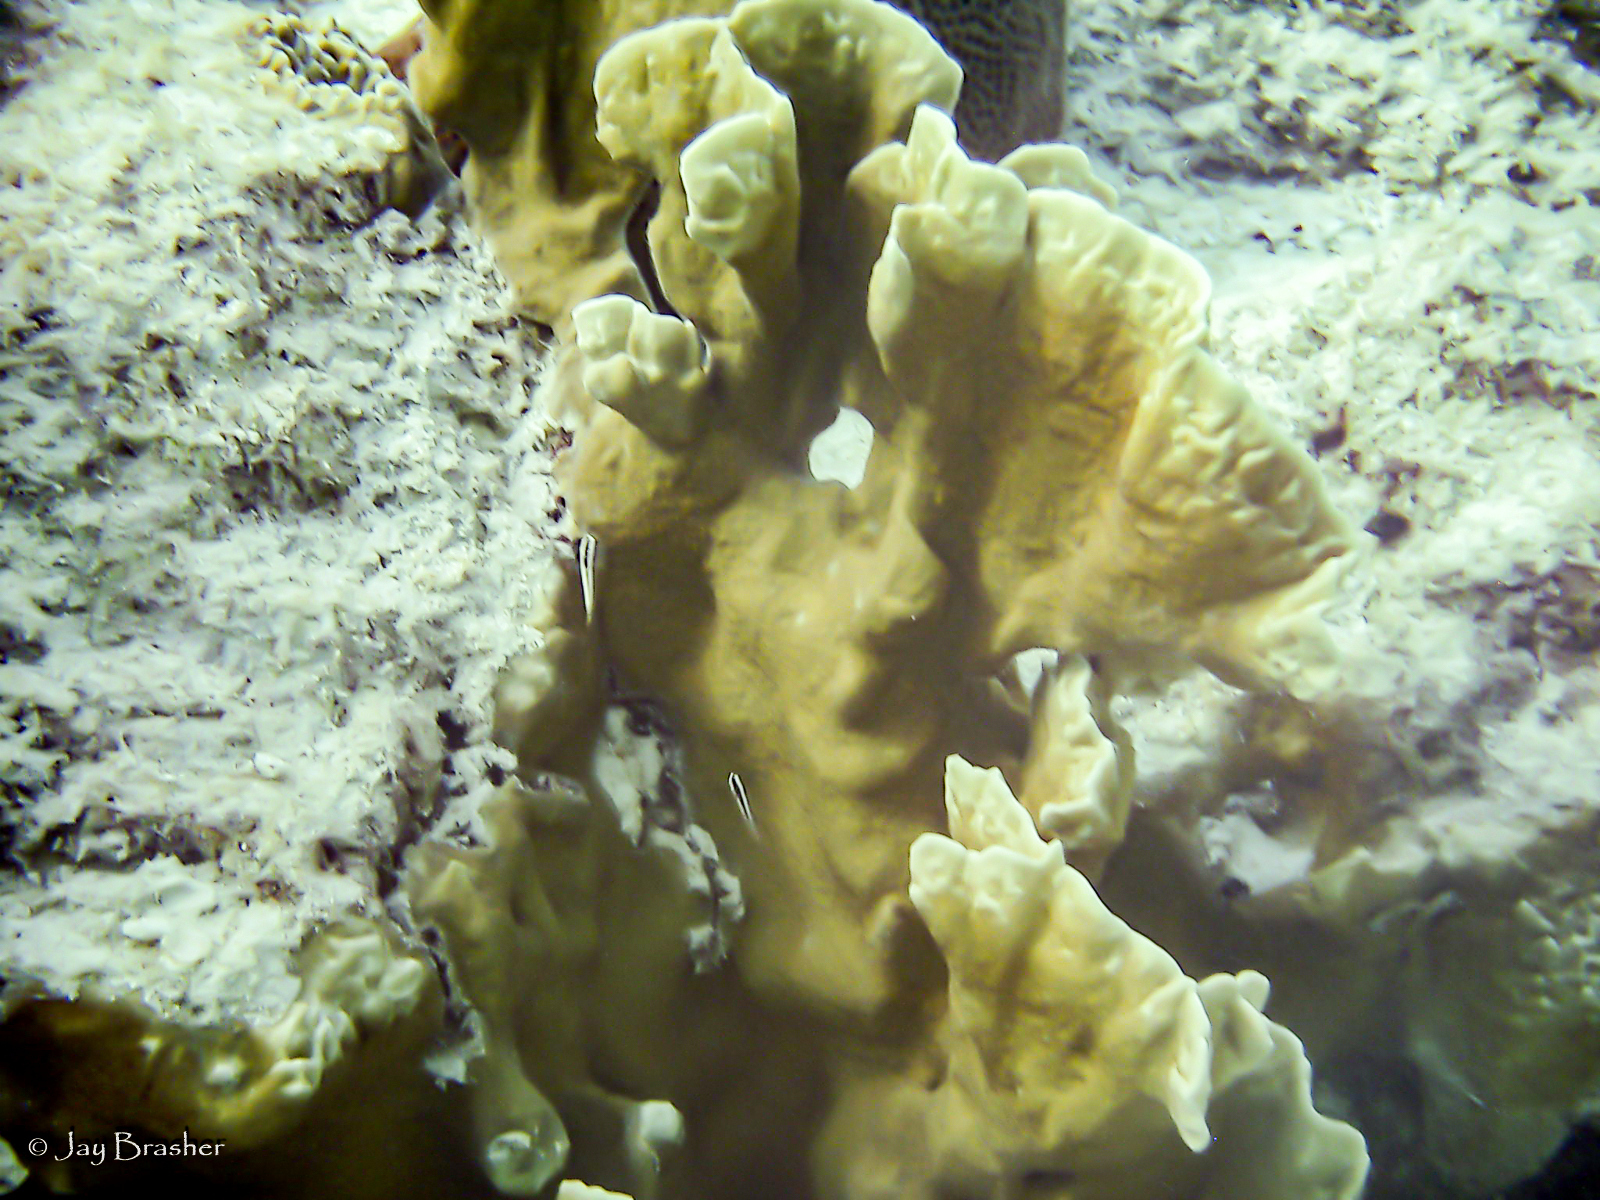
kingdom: Animalia
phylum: Cnidaria
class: Hydrozoa
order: Anthoathecata
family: Milleporidae
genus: Millepora
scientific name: Millepora complanata
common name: Bladed fire coral
